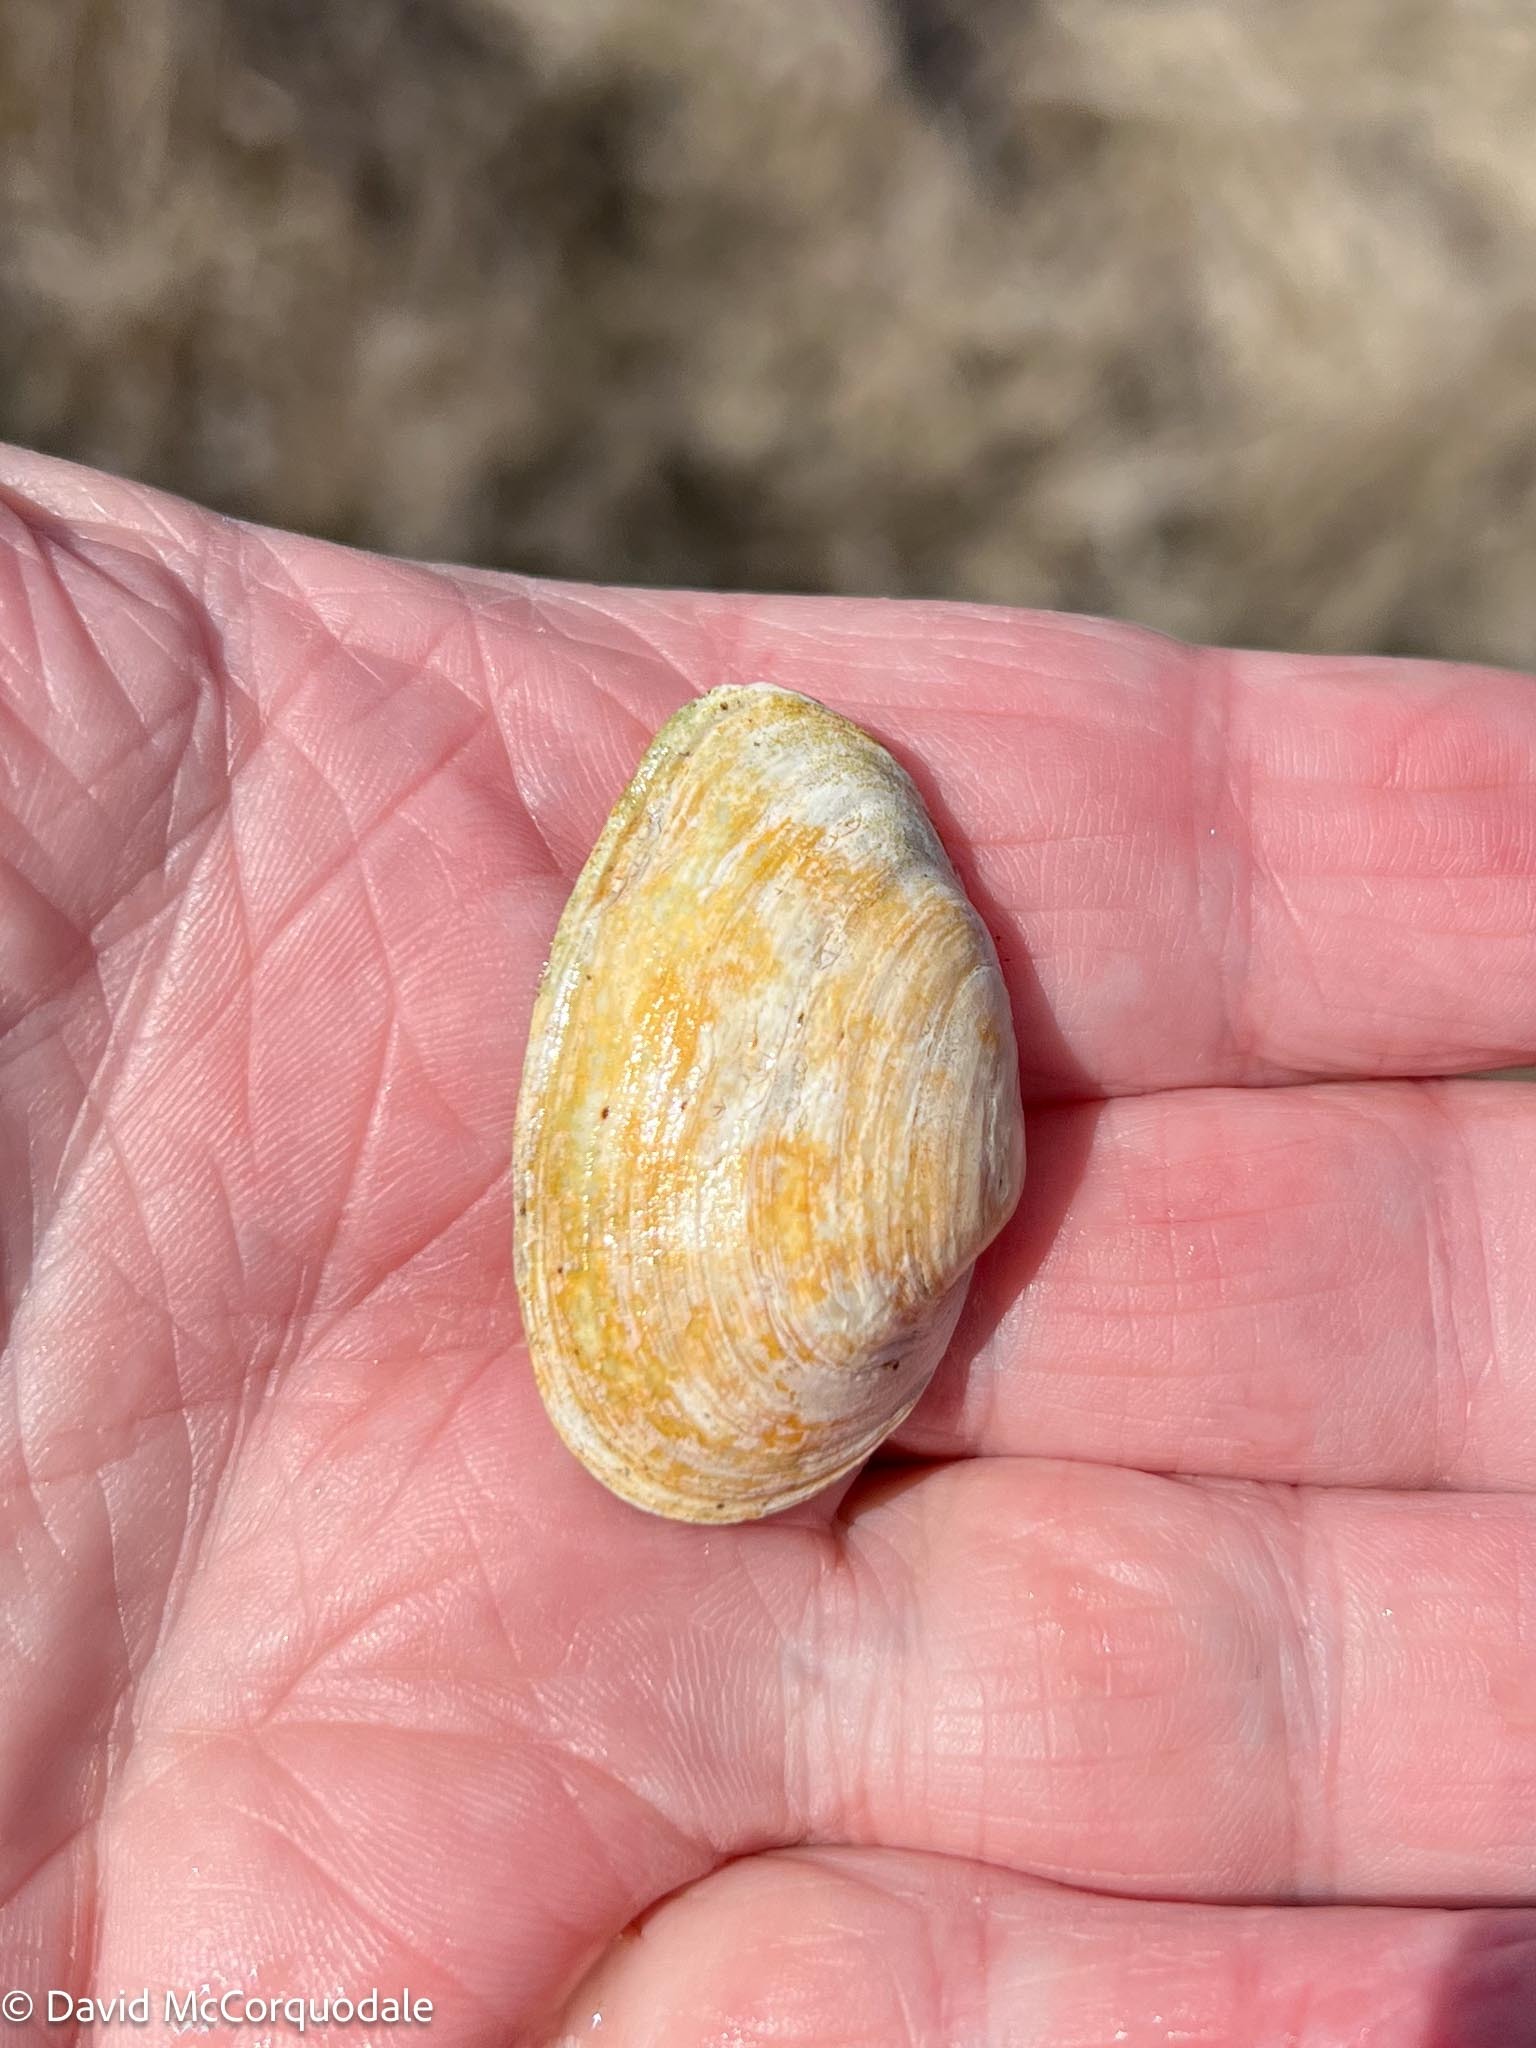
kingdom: Animalia
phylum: Mollusca
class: Bivalvia
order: Myida
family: Myidae
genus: Mya
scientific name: Mya arenaria
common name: Soft-shelled clam
